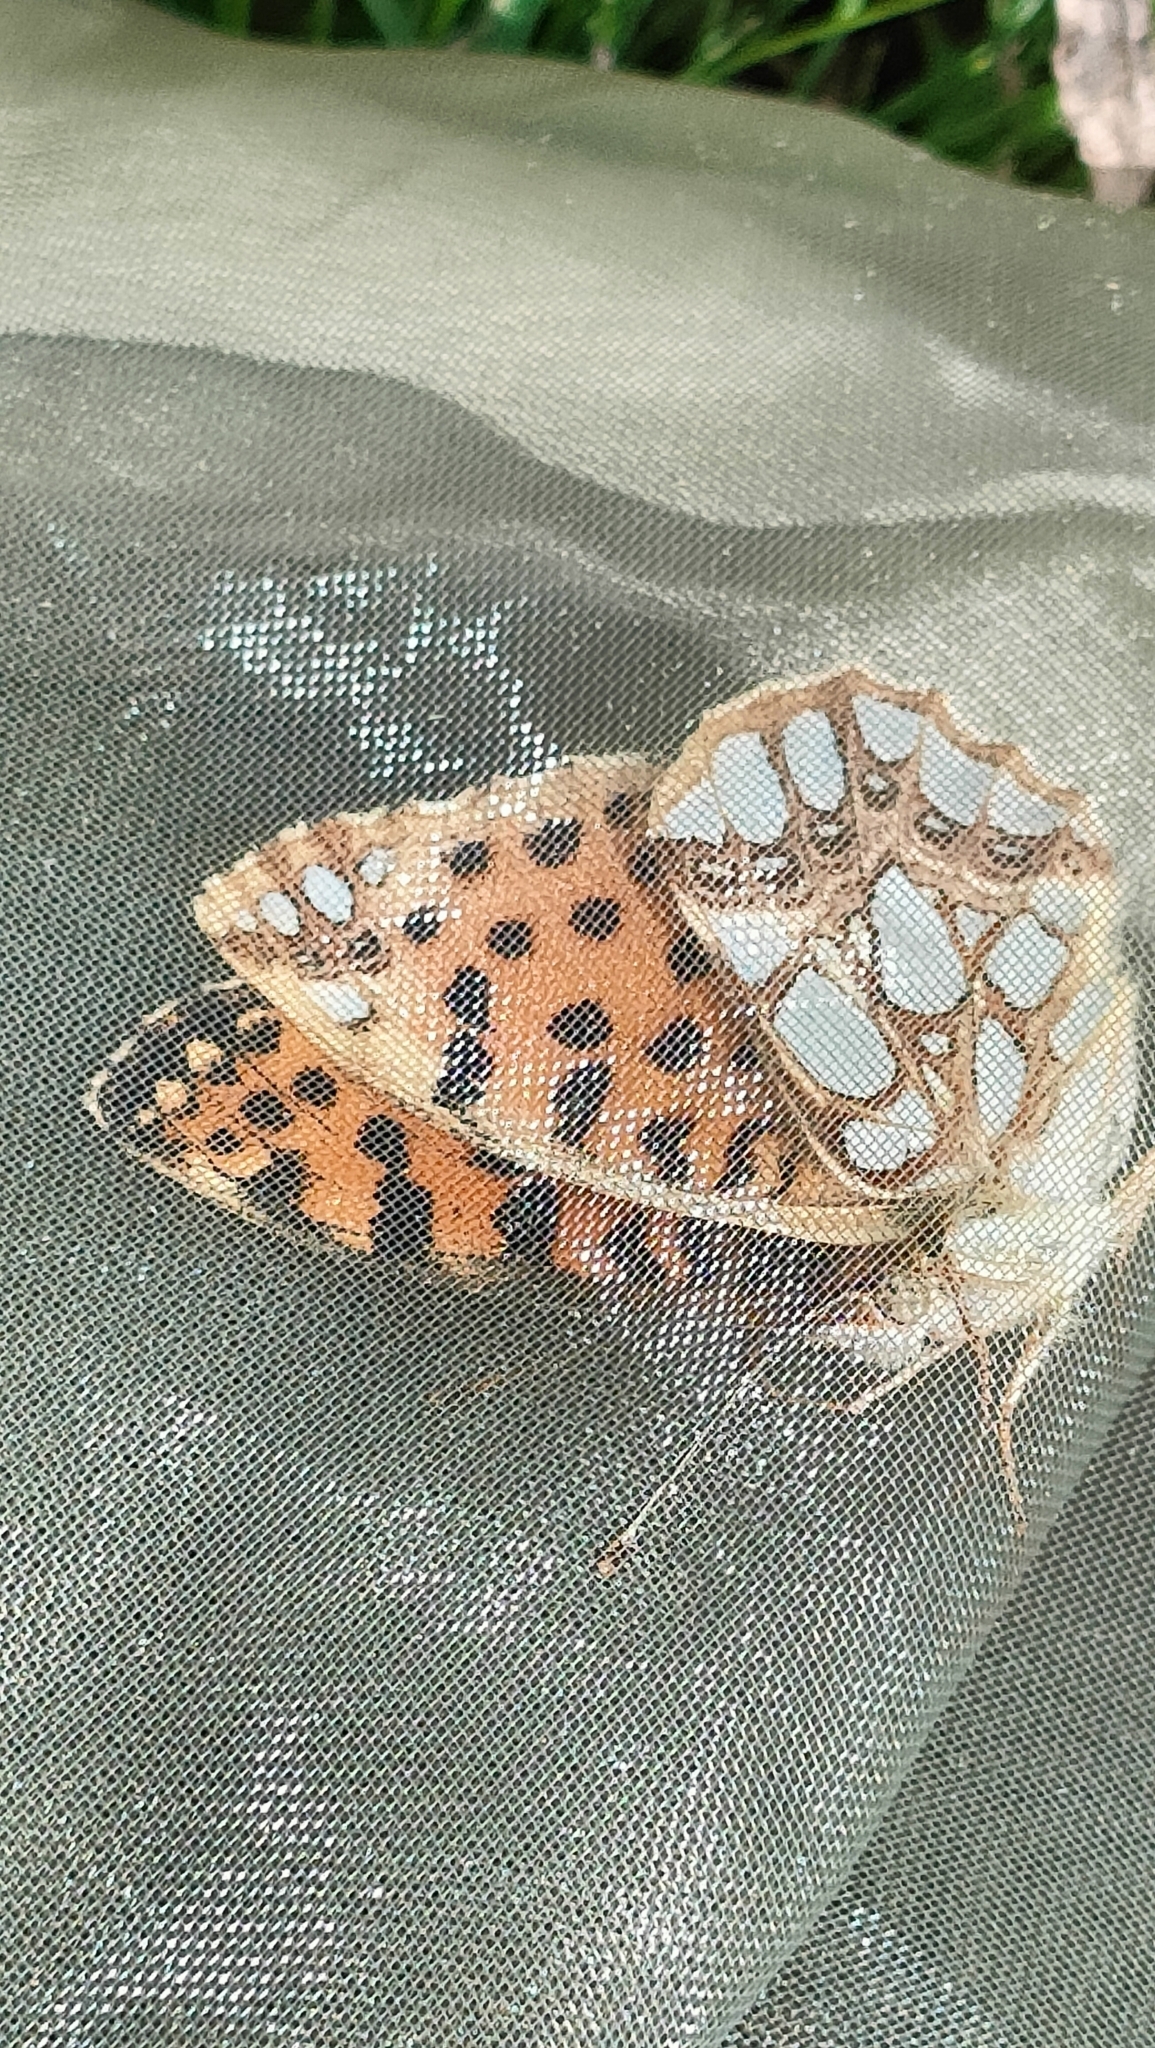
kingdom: Animalia
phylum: Arthropoda
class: Insecta
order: Lepidoptera
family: Nymphalidae
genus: Issoria
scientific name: Issoria lathonia
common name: Queen of spain fritillary
